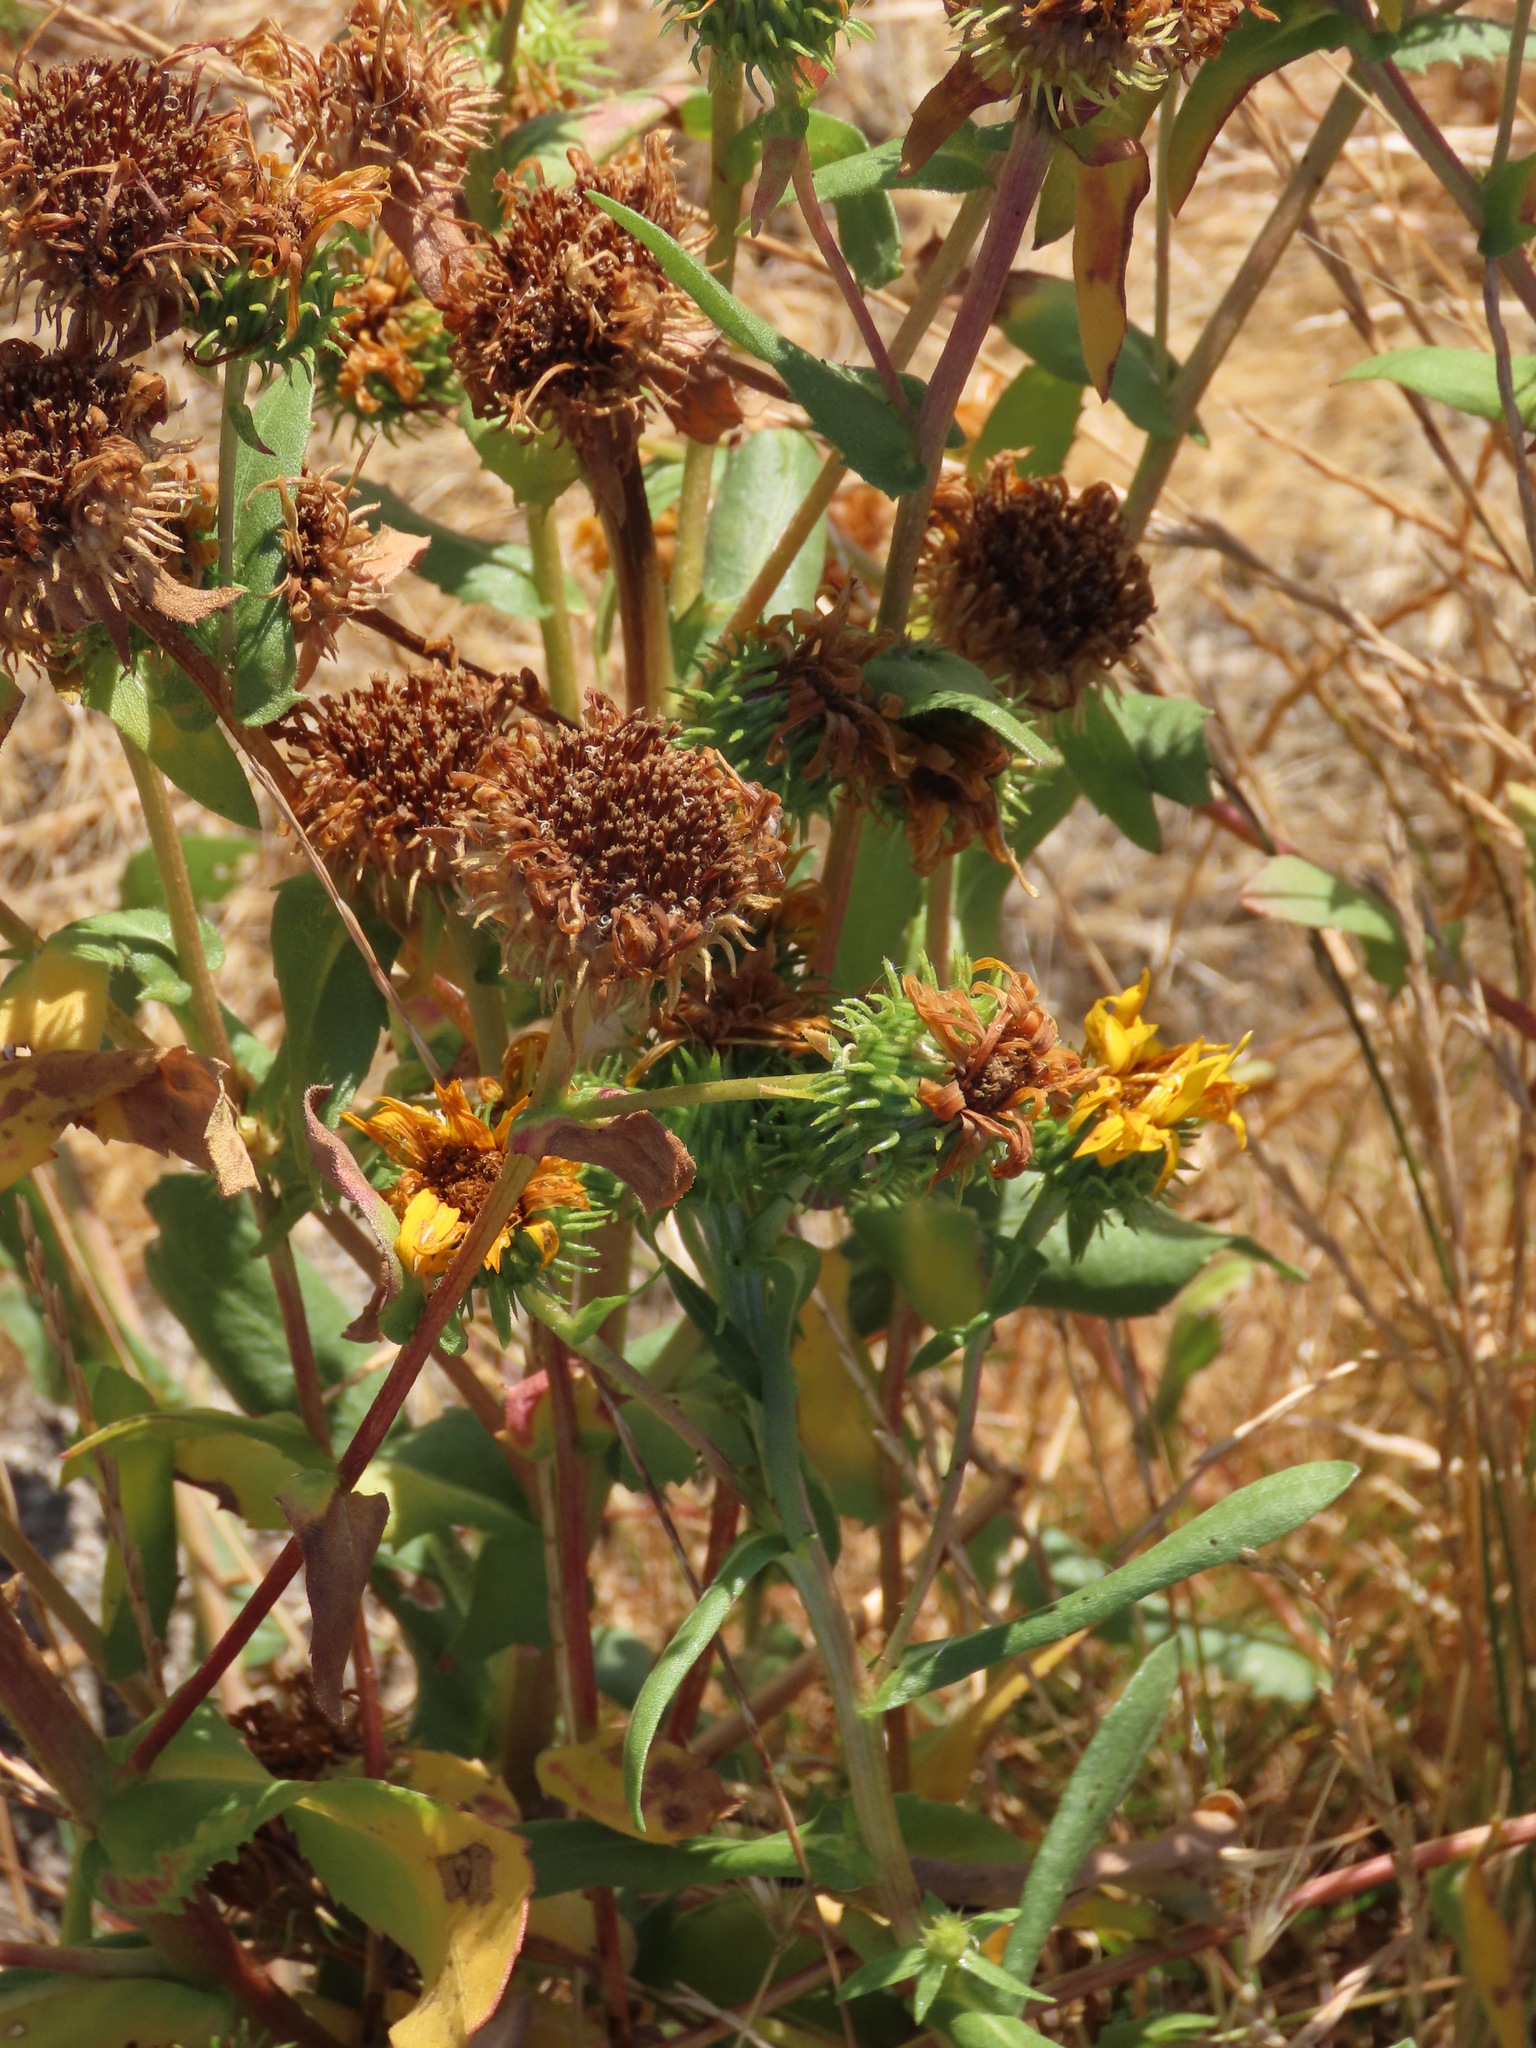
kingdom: Plantae
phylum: Tracheophyta
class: Magnoliopsida
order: Asterales
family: Asteraceae
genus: Grindelia
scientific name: Grindelia hirsutula
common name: Hairy gumweed
